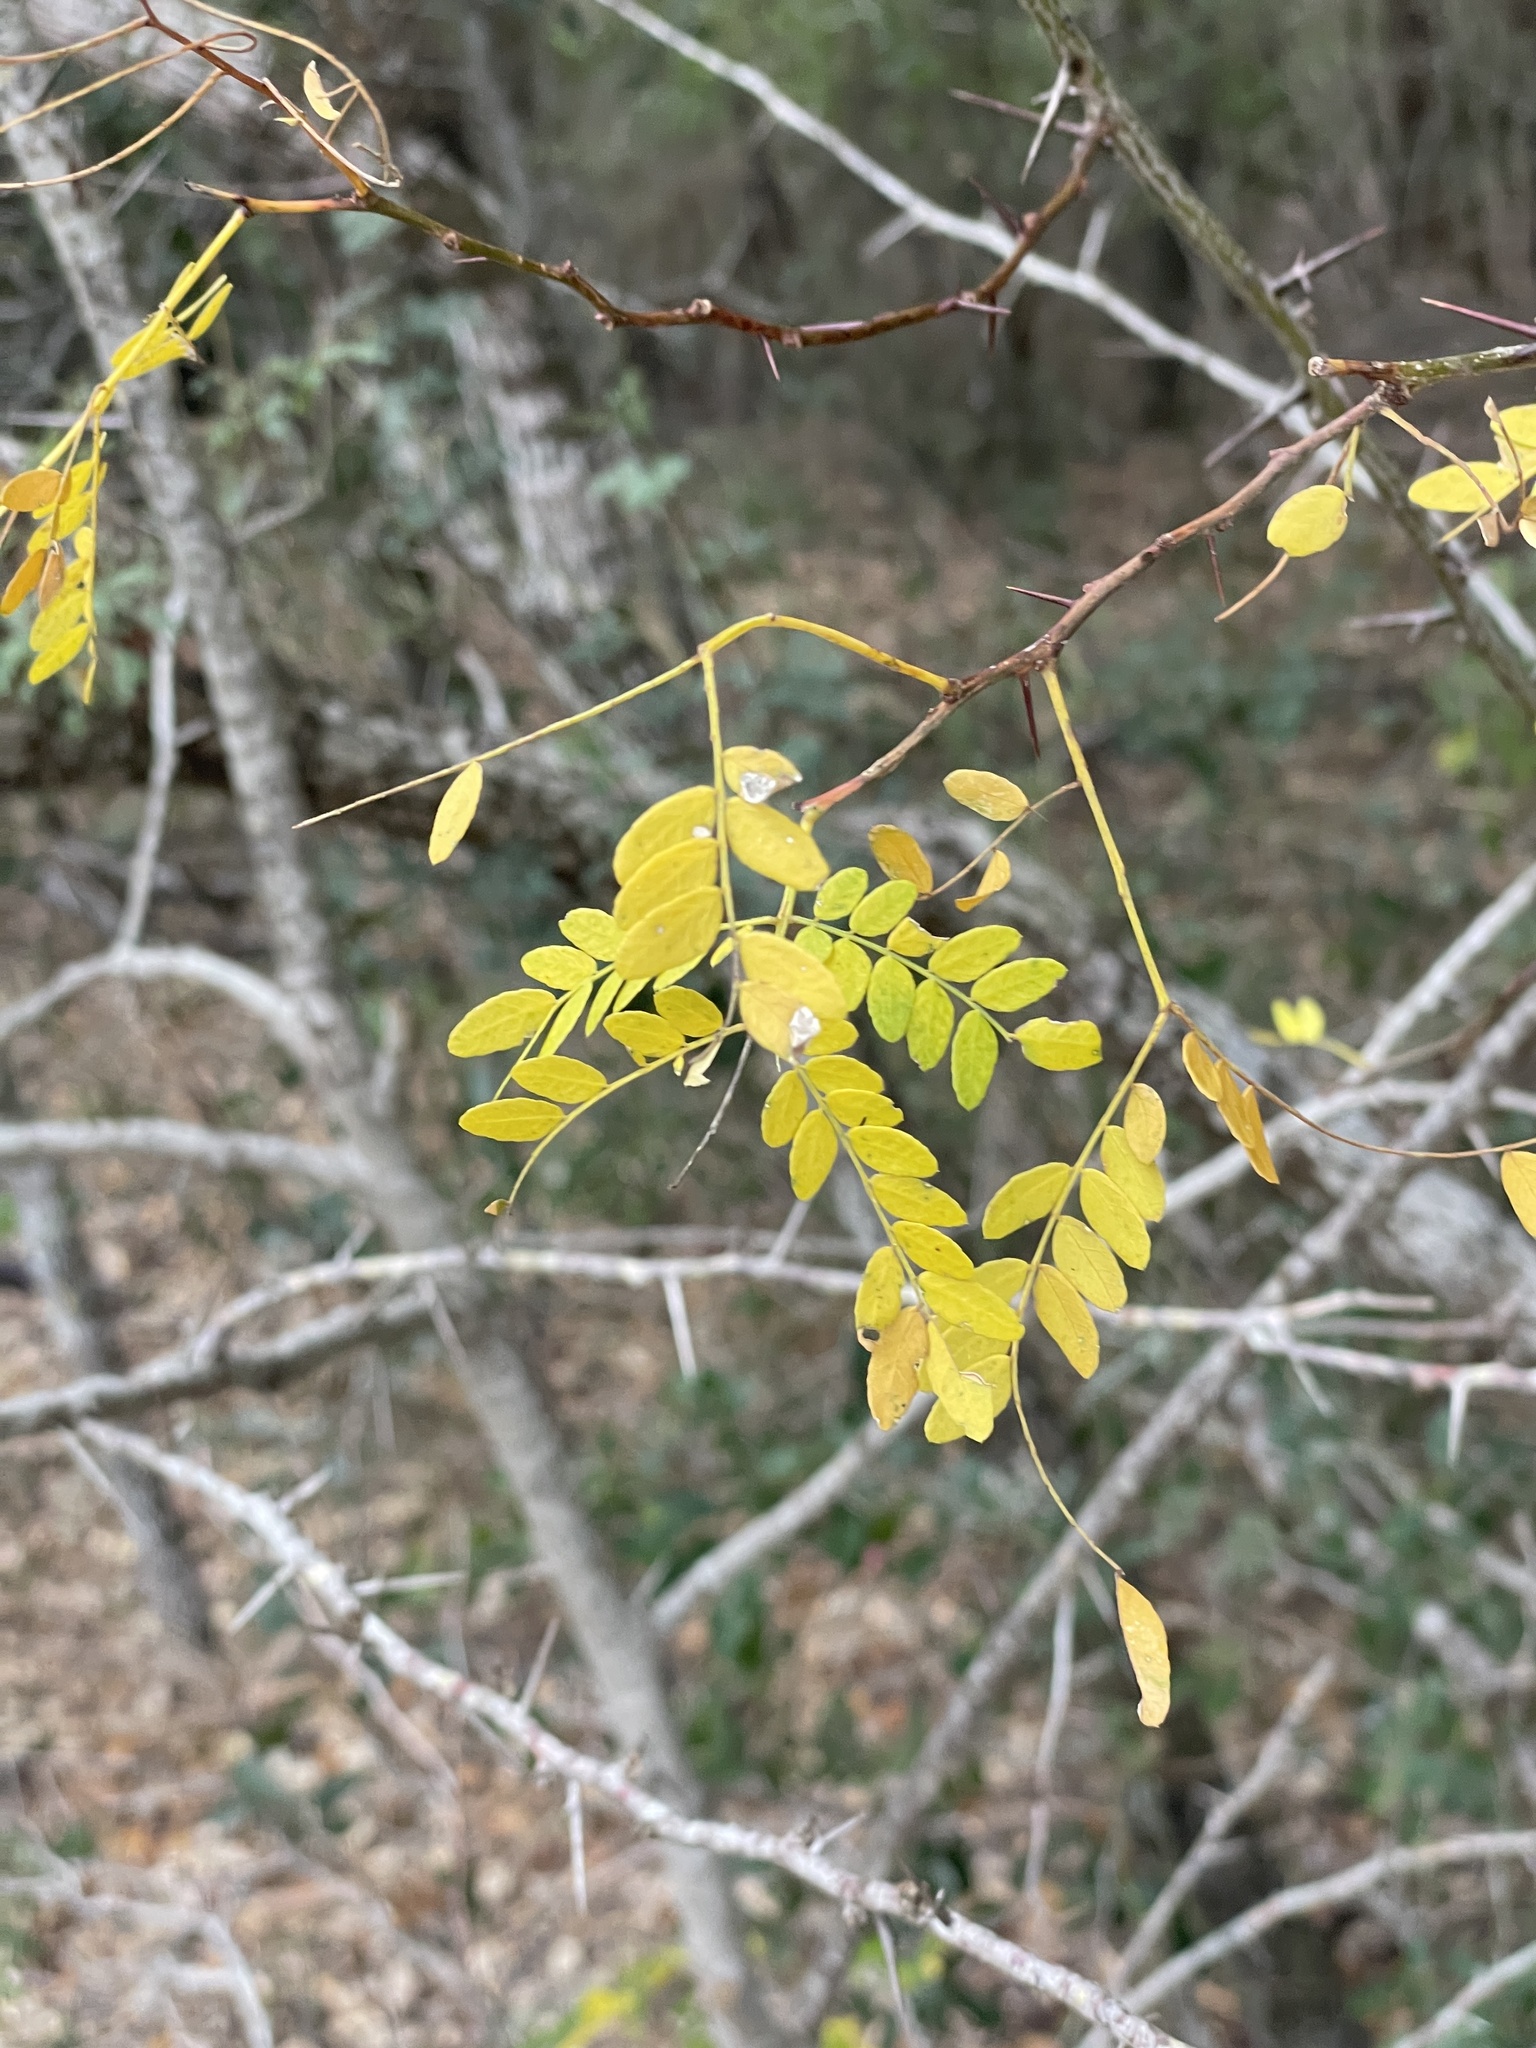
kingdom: Plantae
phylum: Tracheophyta
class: Magnoliopsida
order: Fabales
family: Fabaceae
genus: Gleditsia
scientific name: Gleditsia triacanthos
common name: Common honeylocust
